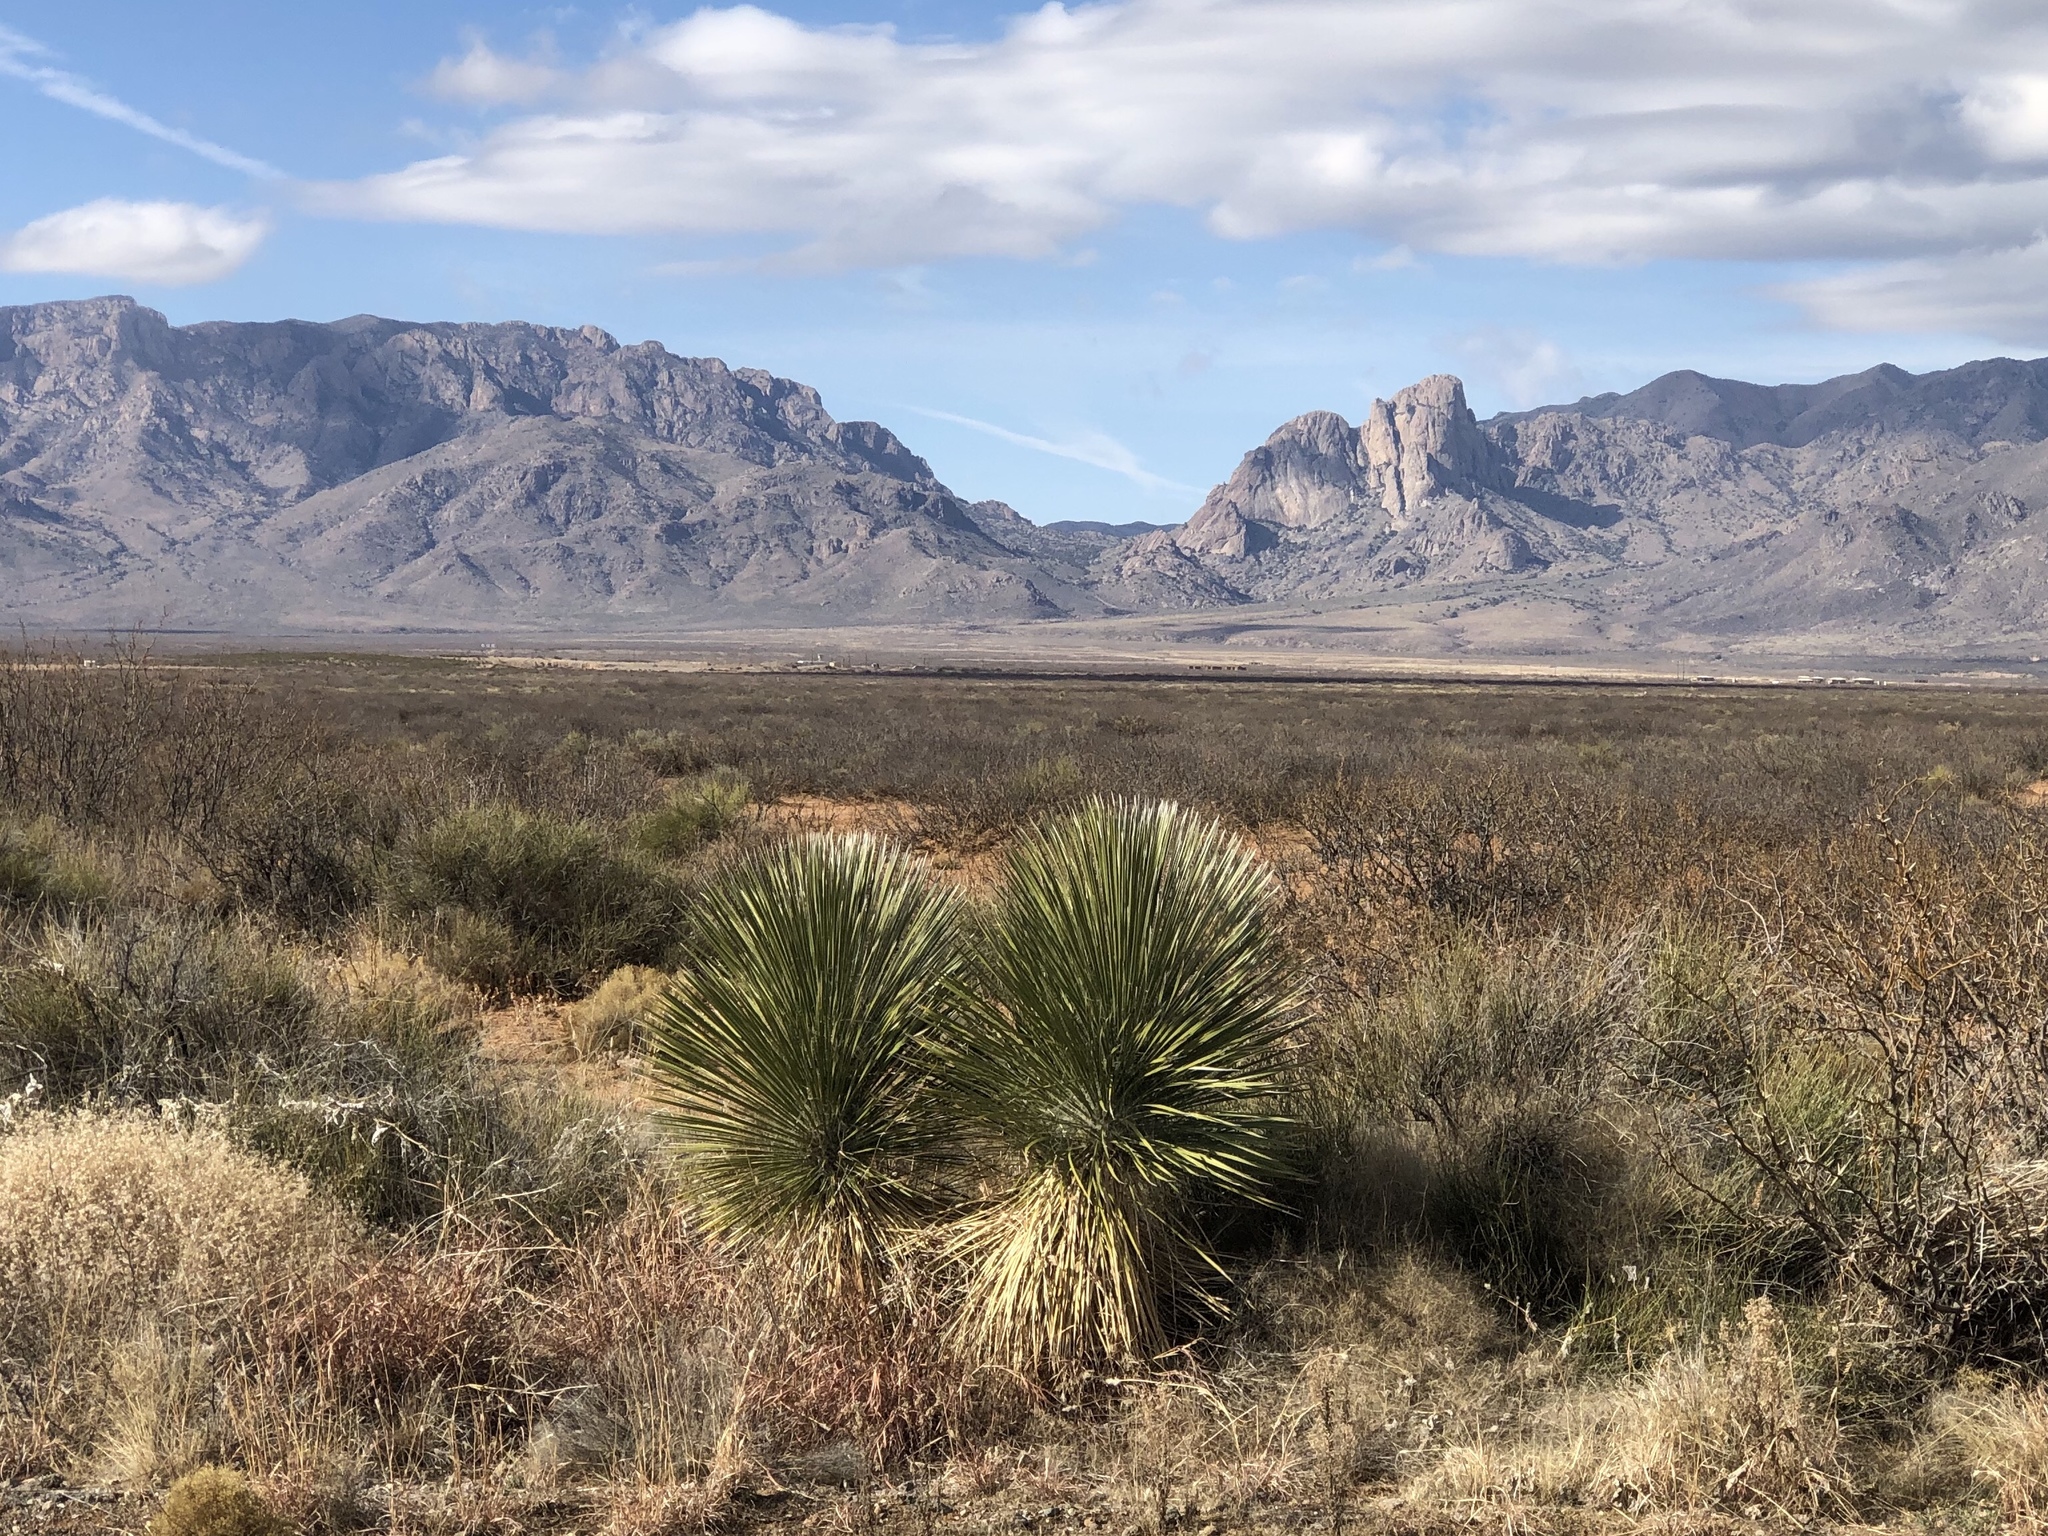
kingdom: Plantae
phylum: Tracheophyta
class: Liliopsida
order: Asparagales
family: Asparagaceae
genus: Yucca
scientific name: Yucca elata
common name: Palmella
